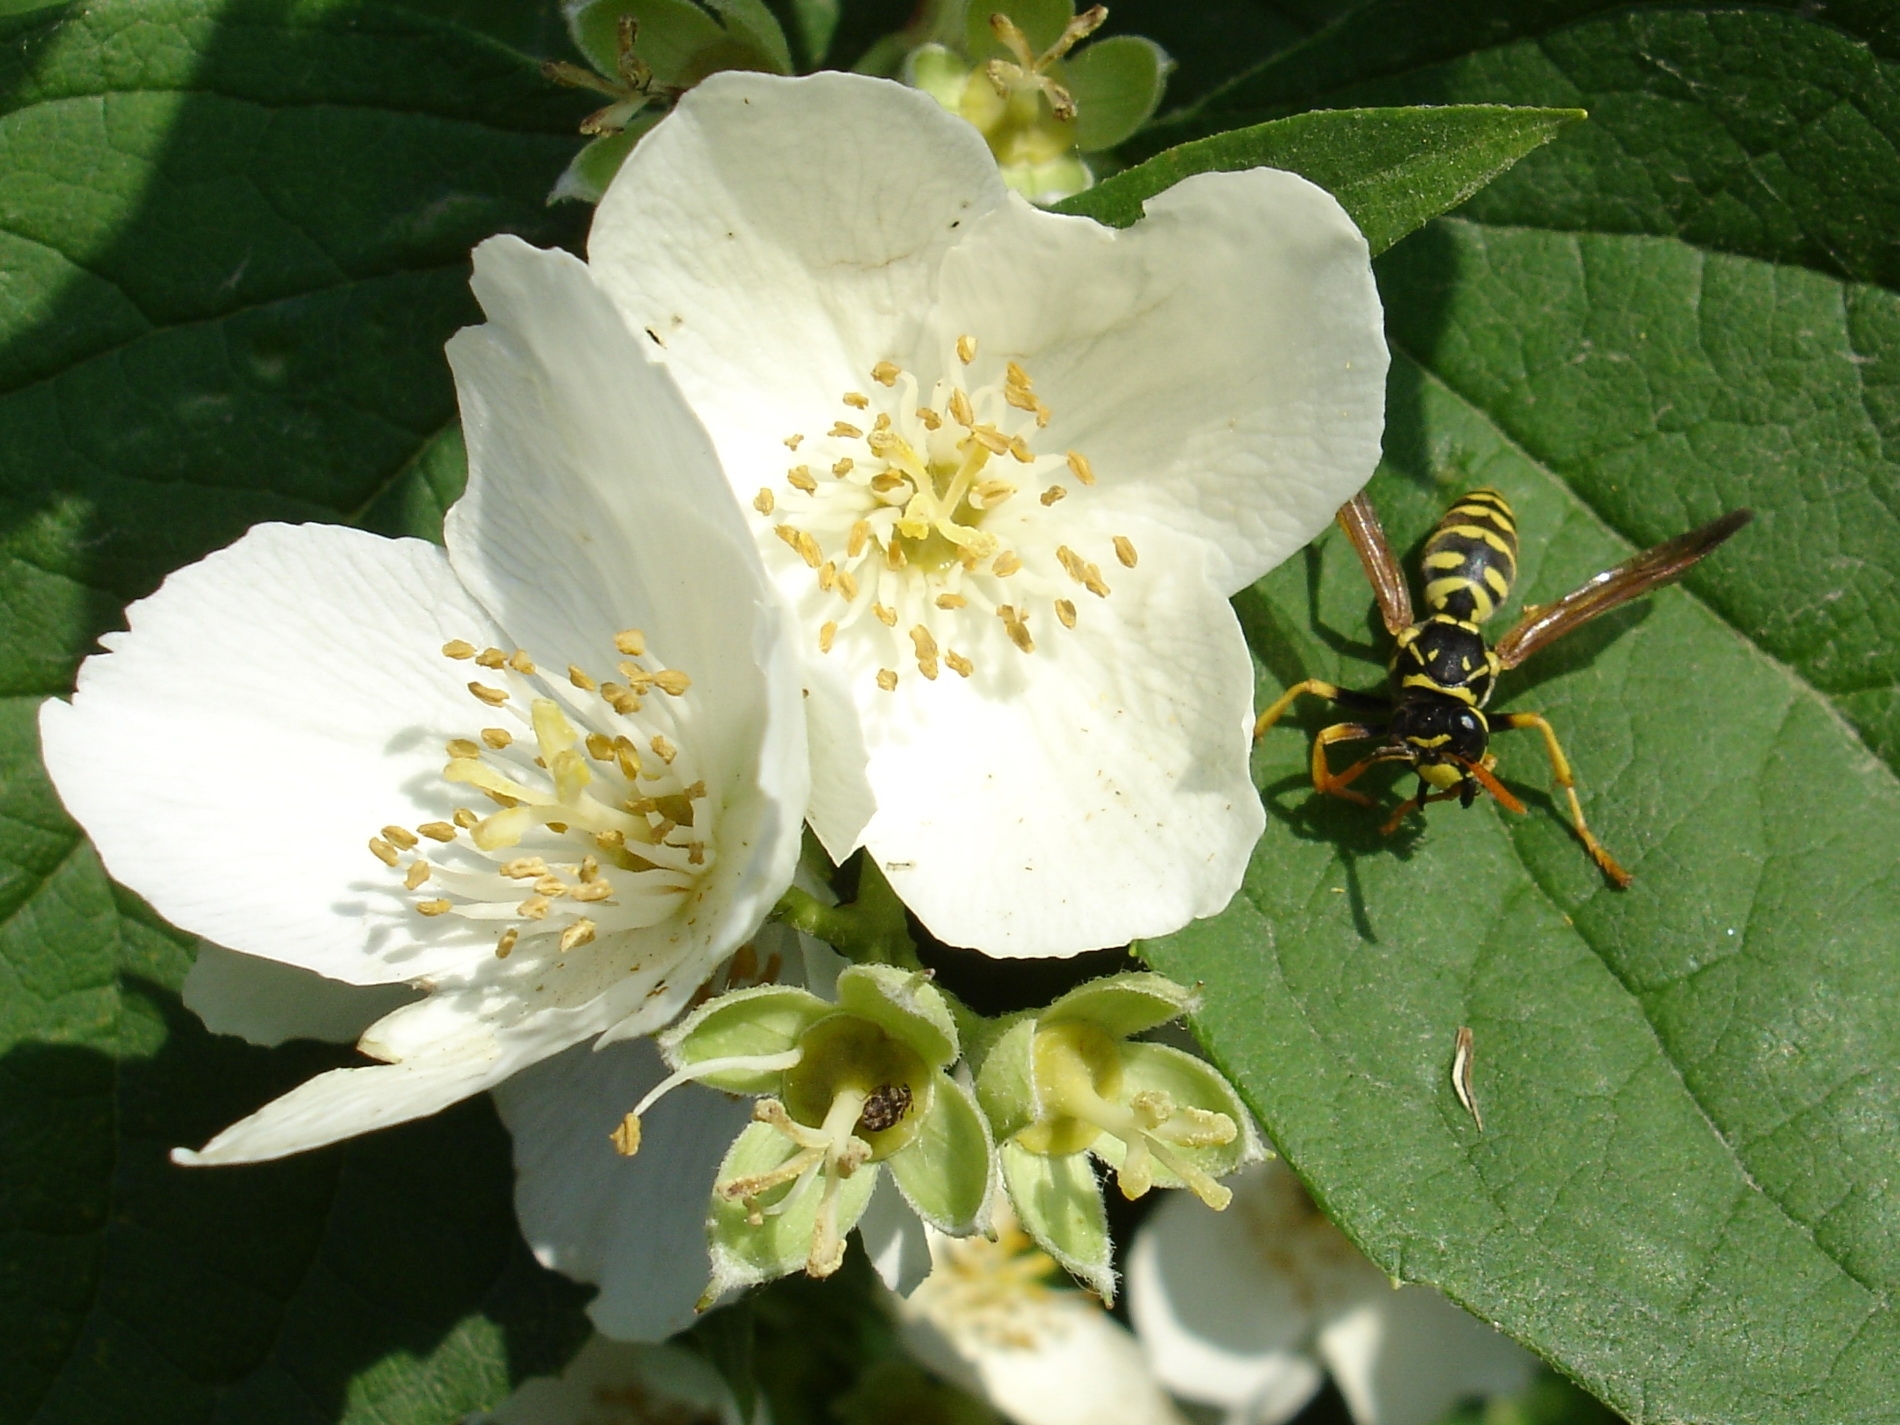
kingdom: Animalia
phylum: Arthropoda
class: Insecta
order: Hymenoptera
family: Eumenidae
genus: Polistes
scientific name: Polistes dominula
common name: Paper wasp
